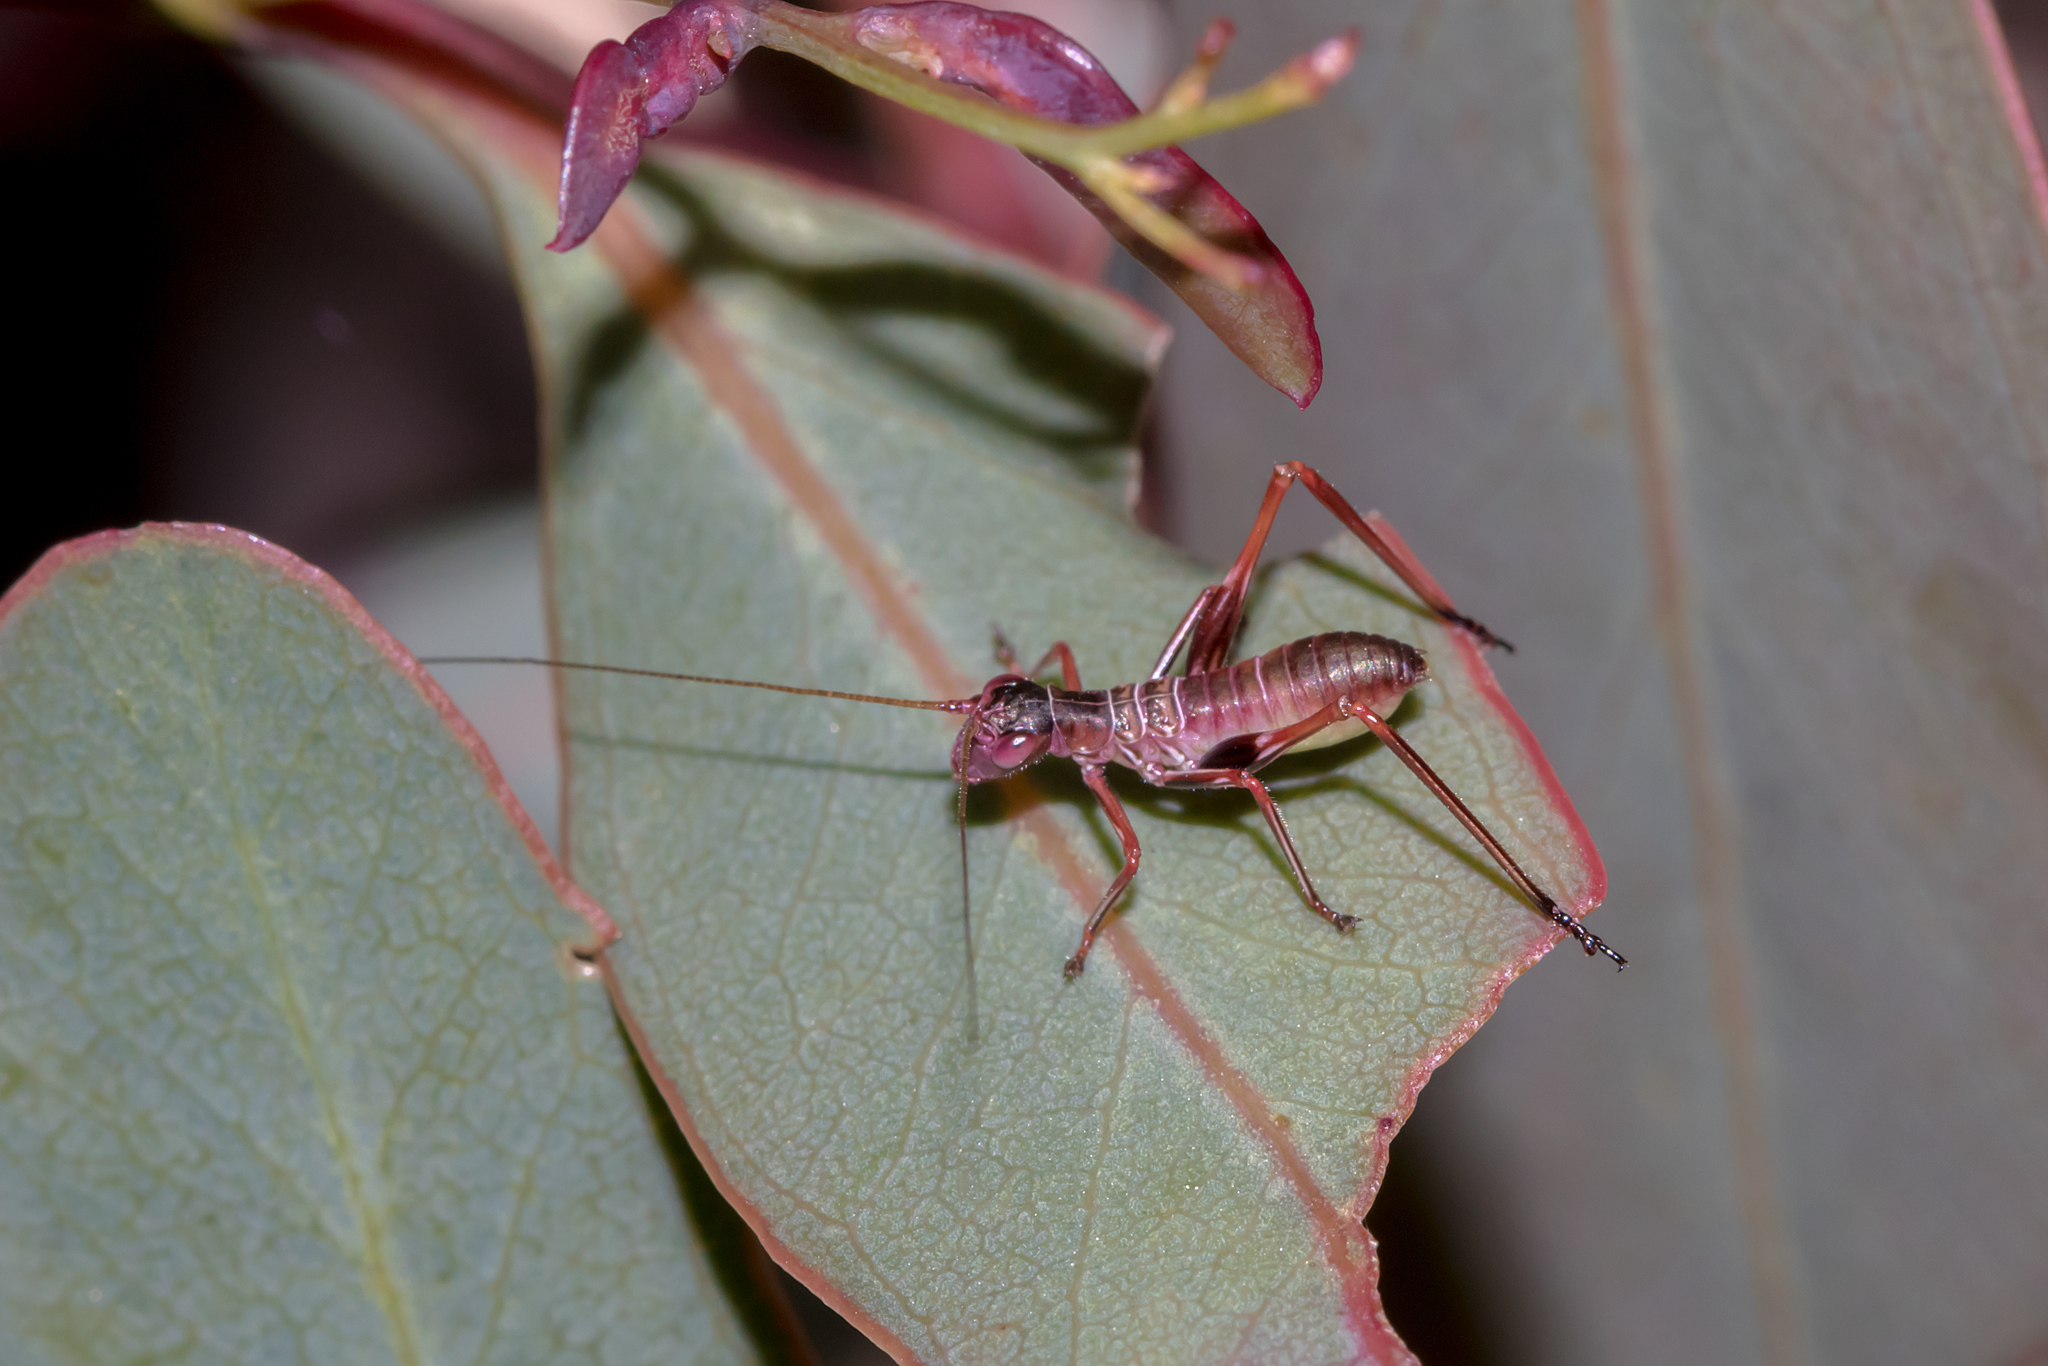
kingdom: Animalia
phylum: Arthropoda
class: Insecta
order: Orthoptera
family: Tettigoniidae
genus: Torbia
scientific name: Torbia viridissima
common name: Non-predaceous gum leaf katydid
